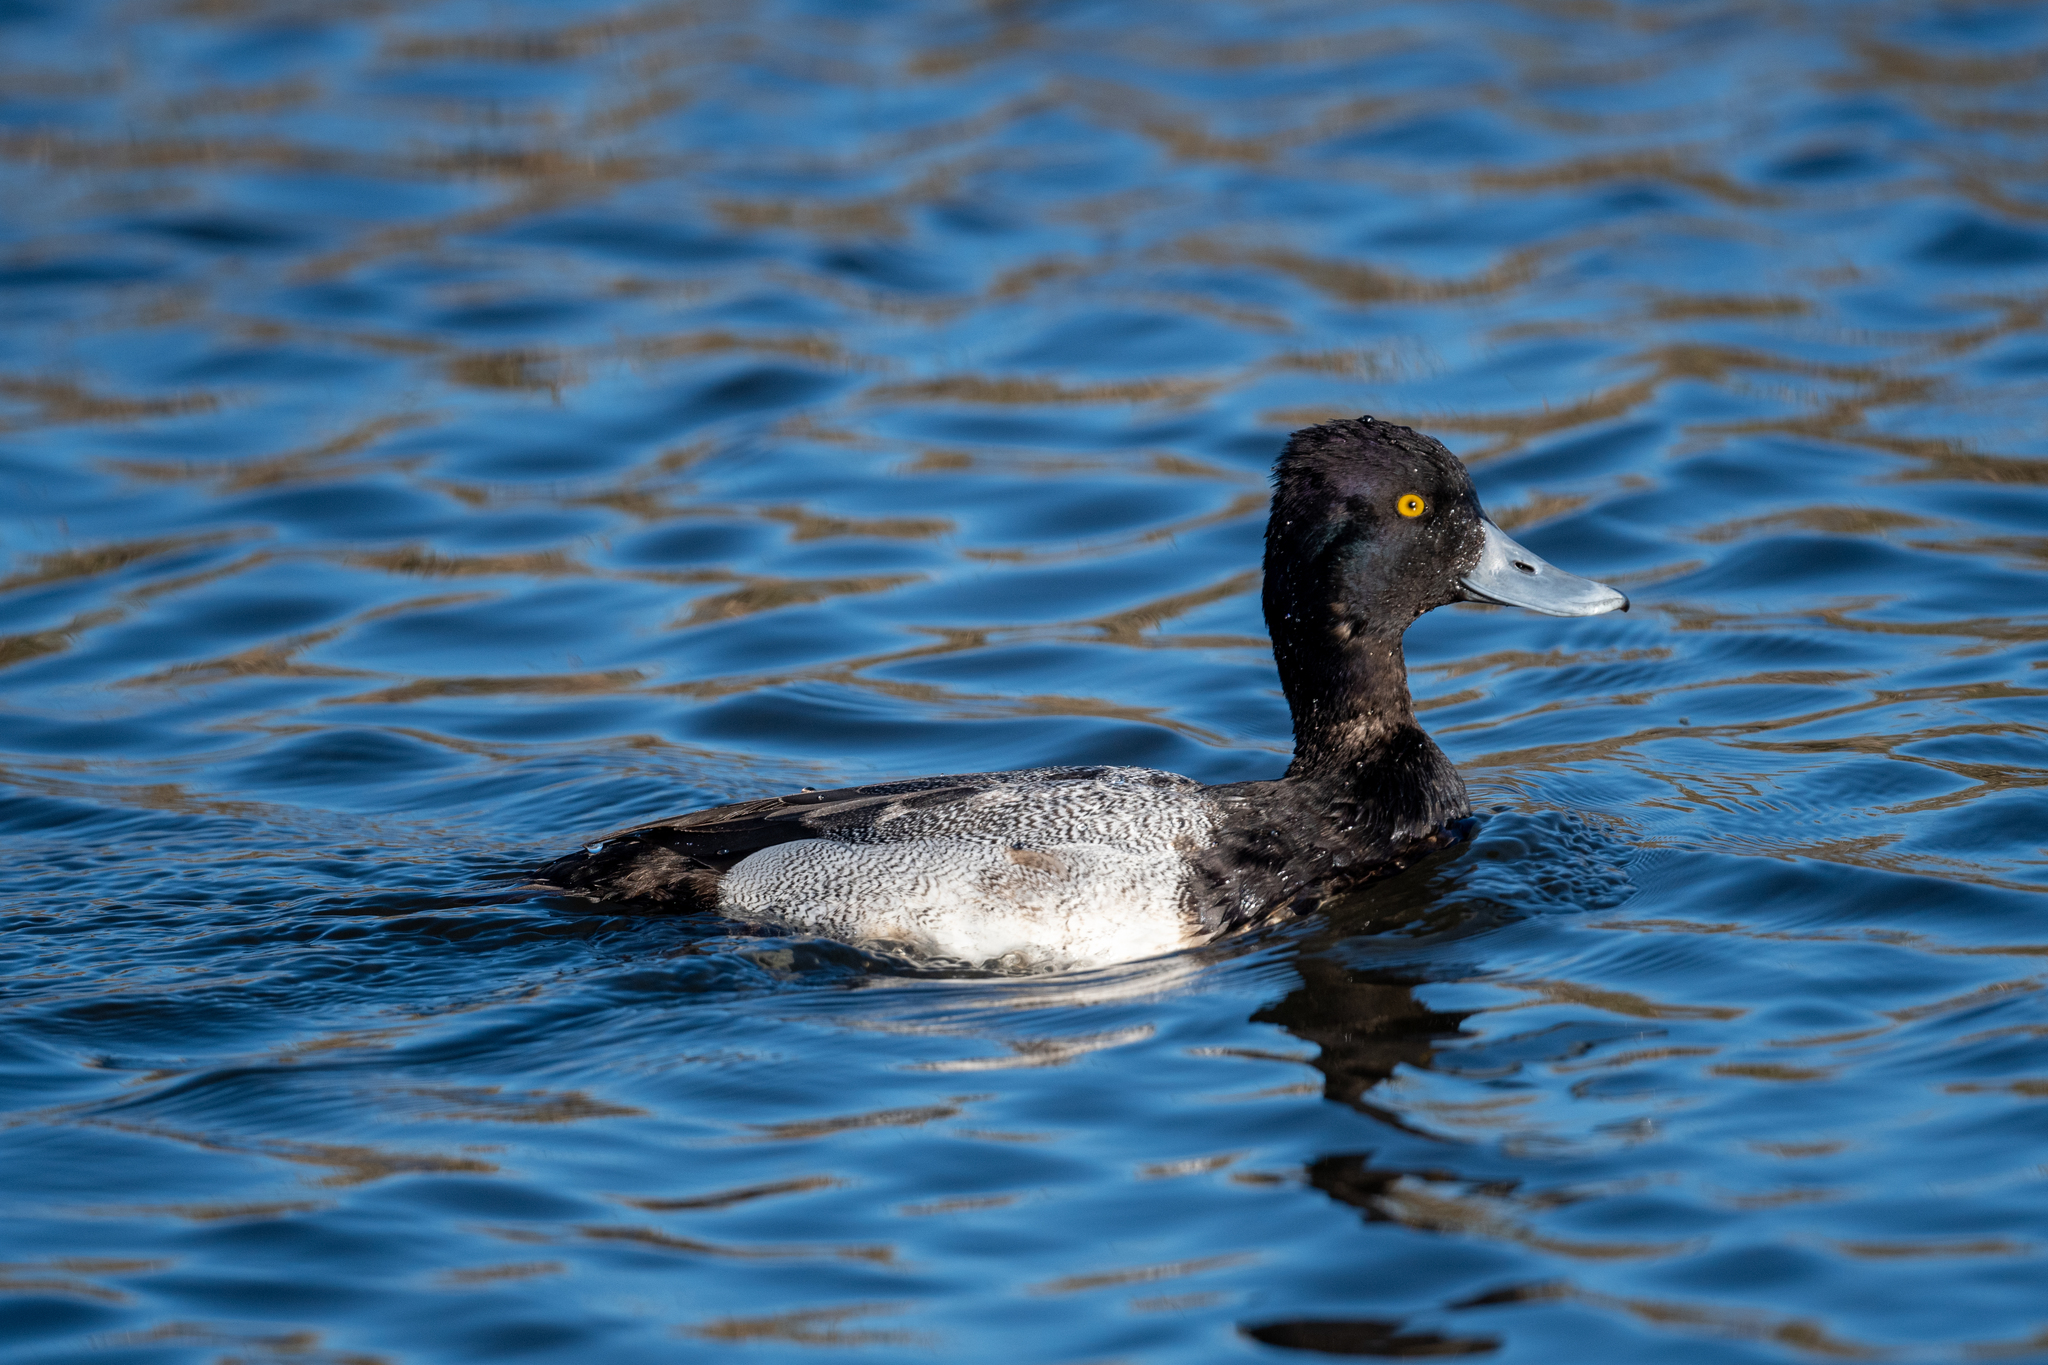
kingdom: Animalia
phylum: Chordata
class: Aves
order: Anseriformes
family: Anatidae
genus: Aythya
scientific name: Aythya affinis
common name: Lesser scaup
